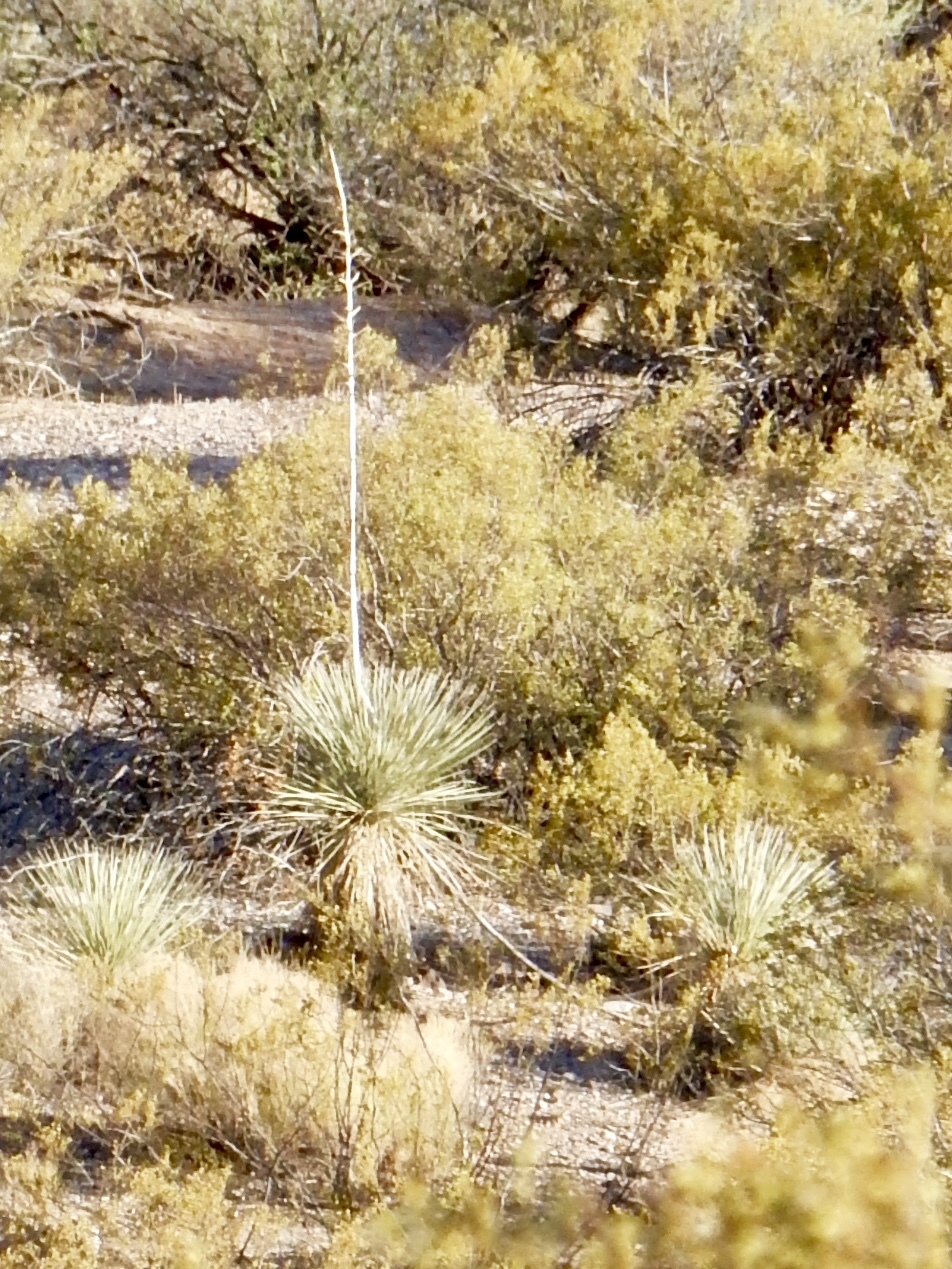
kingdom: Plantae
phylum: Tracheophyta
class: Liliopsida
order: Asparagales
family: Asparagaceae
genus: Yucca
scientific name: Yucca elata
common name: Palmella
